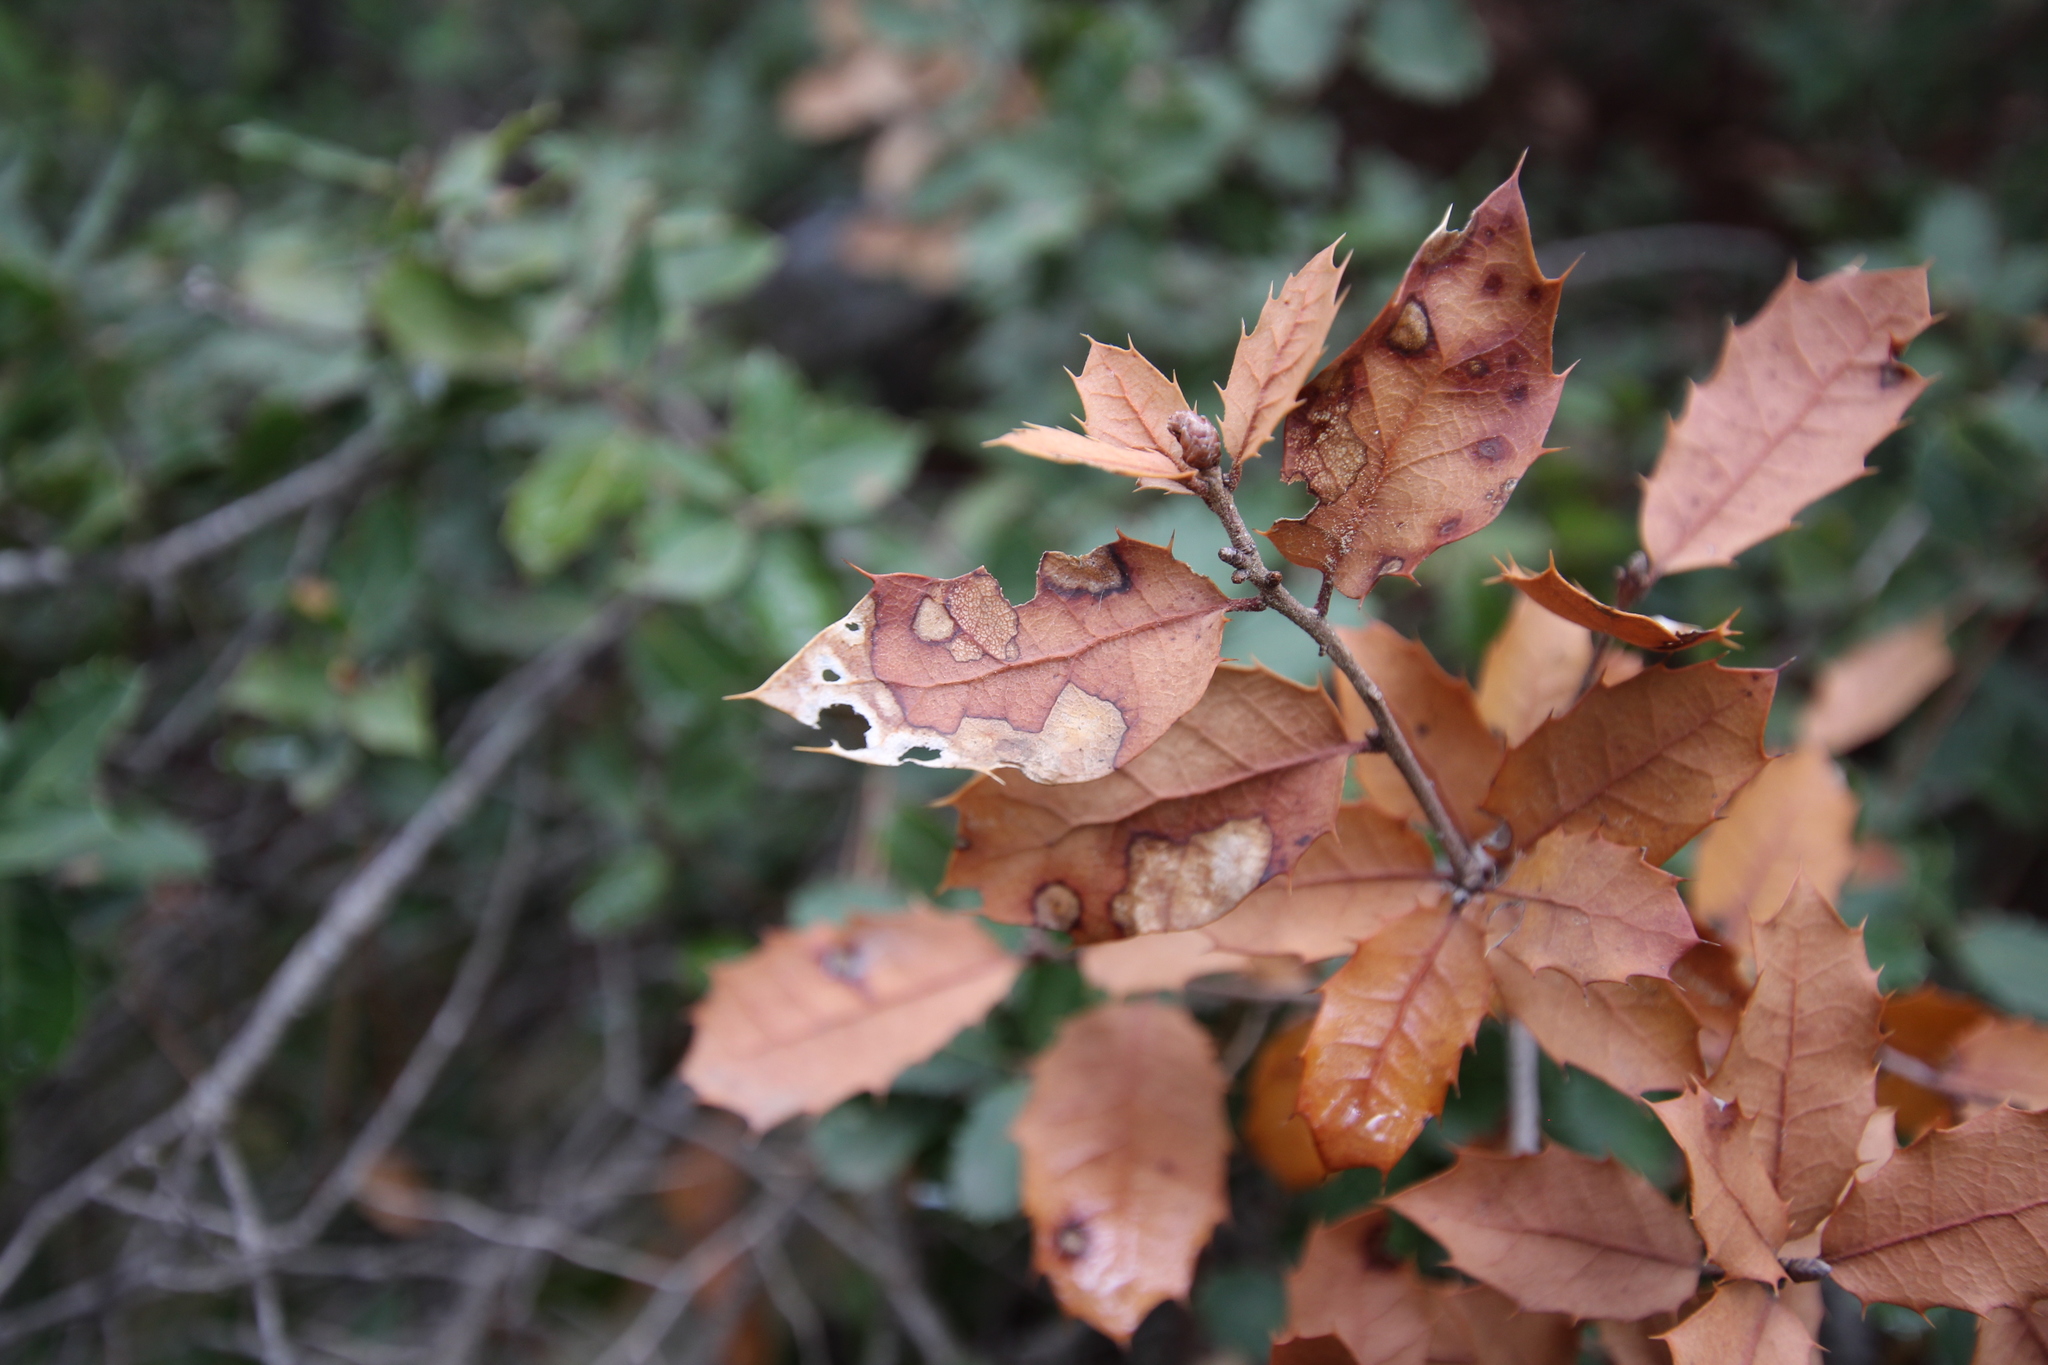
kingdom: Bacteria
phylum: Proteobacteria
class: Gammaproteobacteria
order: Xanthomonadales
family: Xanthomonadaceae
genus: Xylella
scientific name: Xylella fastidiosa
